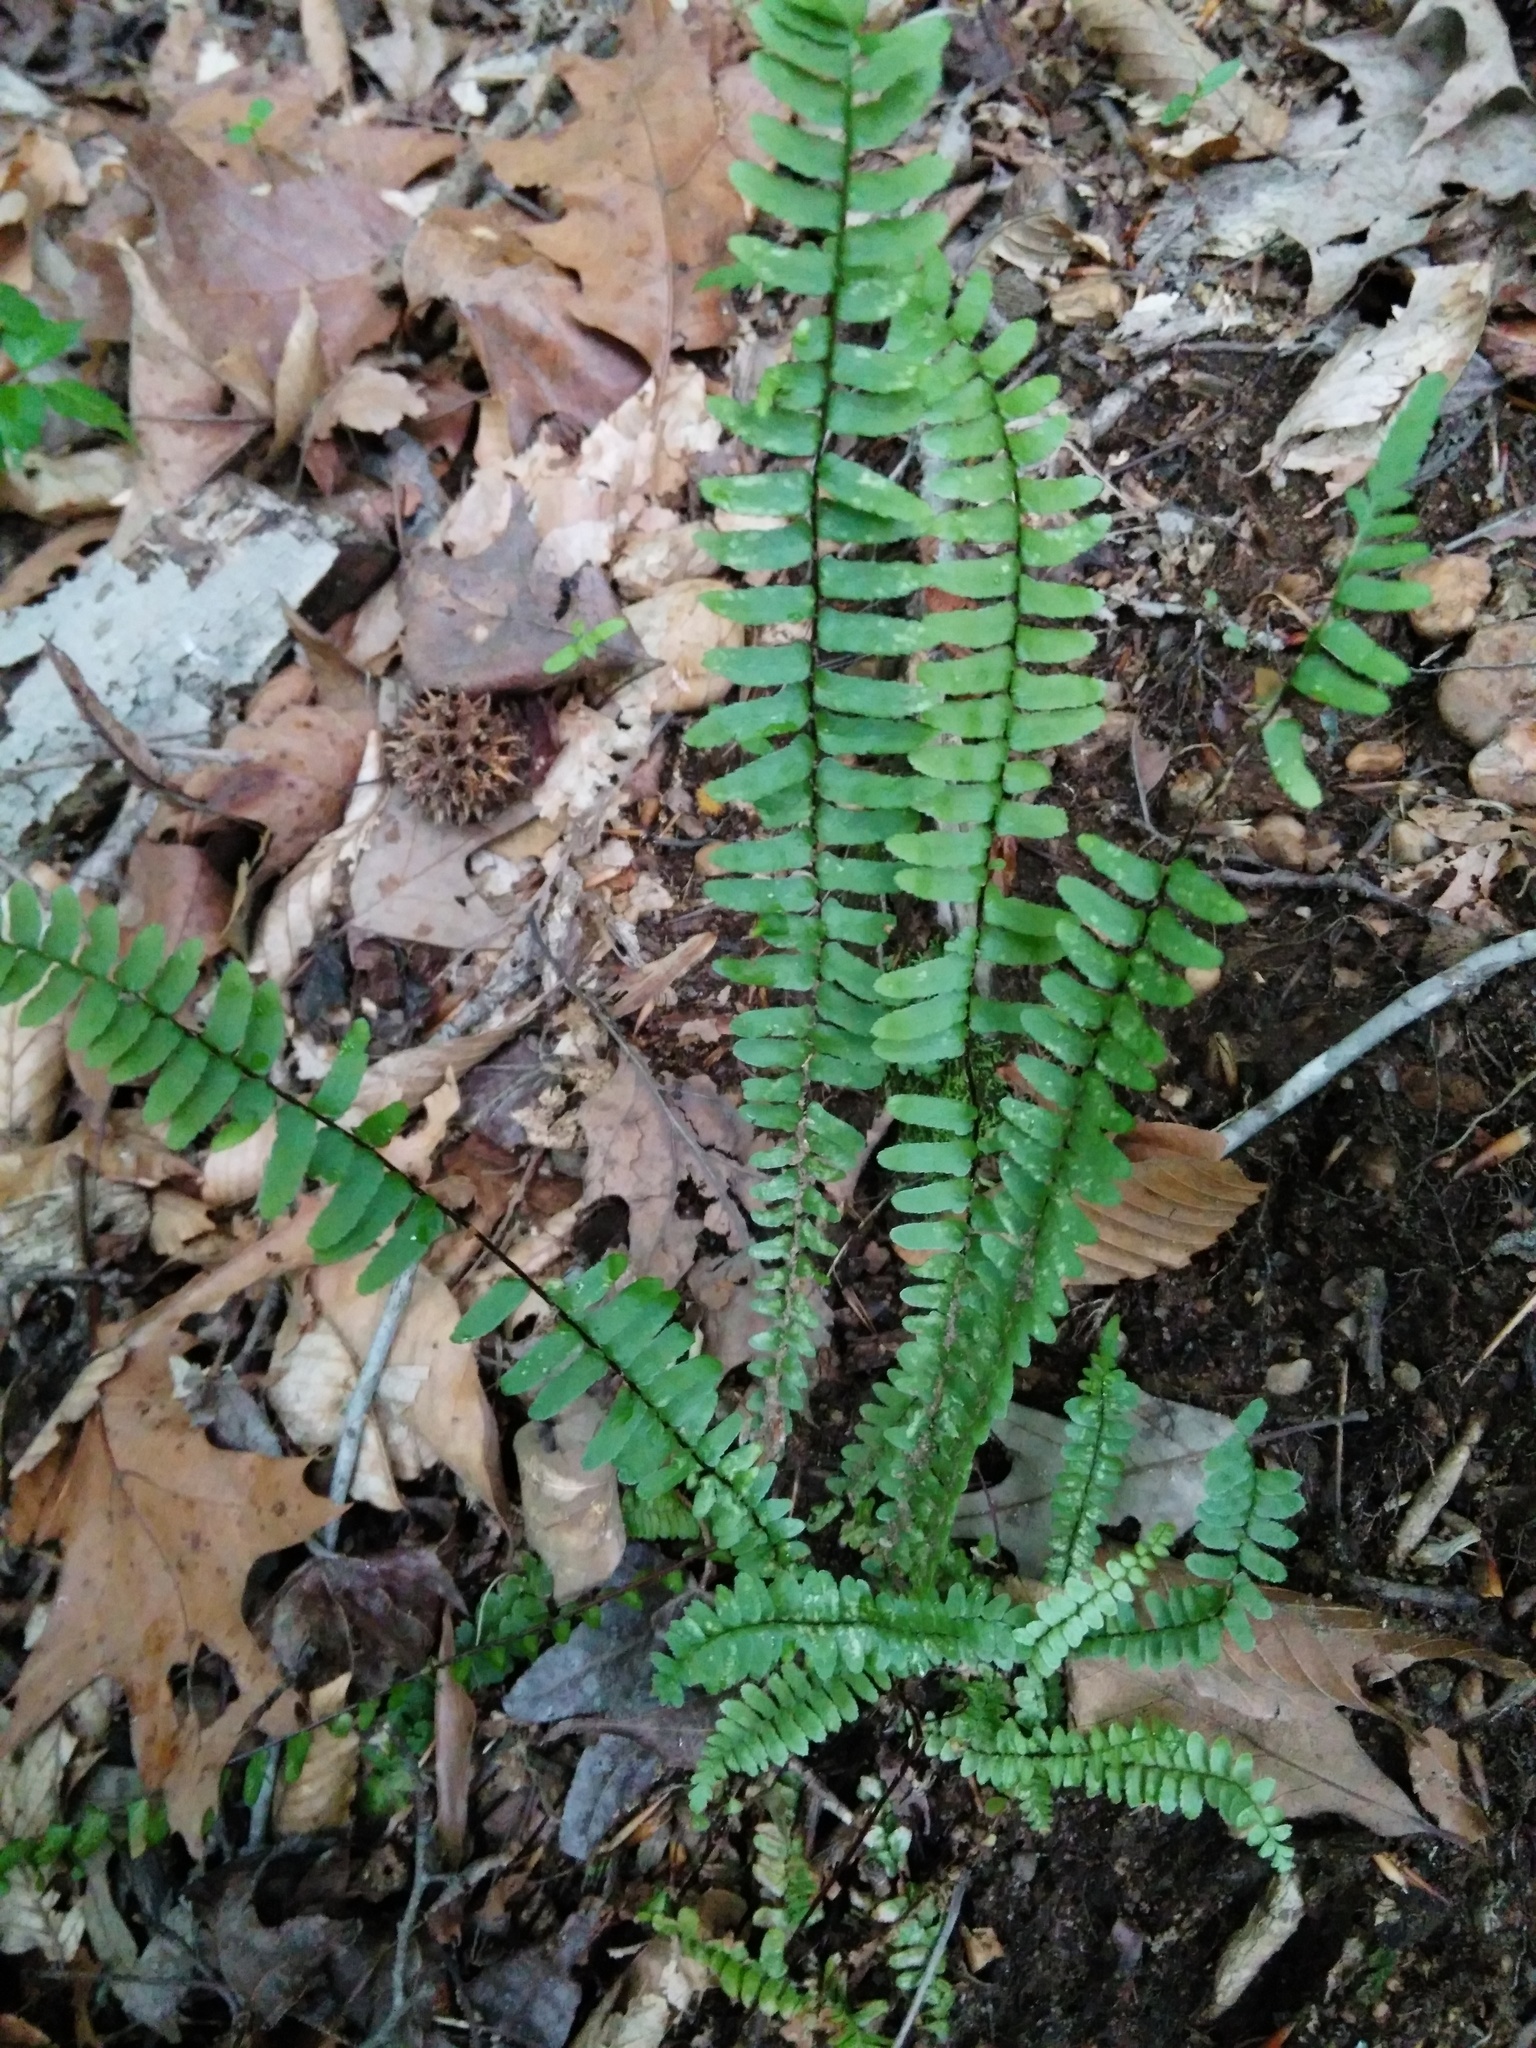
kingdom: Plantae
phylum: Tracheophyta
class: Polypodiopsida
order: Polypodiales
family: Aspleniaceae
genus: Asplenium
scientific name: Asplenium platyneuron
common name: Ebony spleenwort
